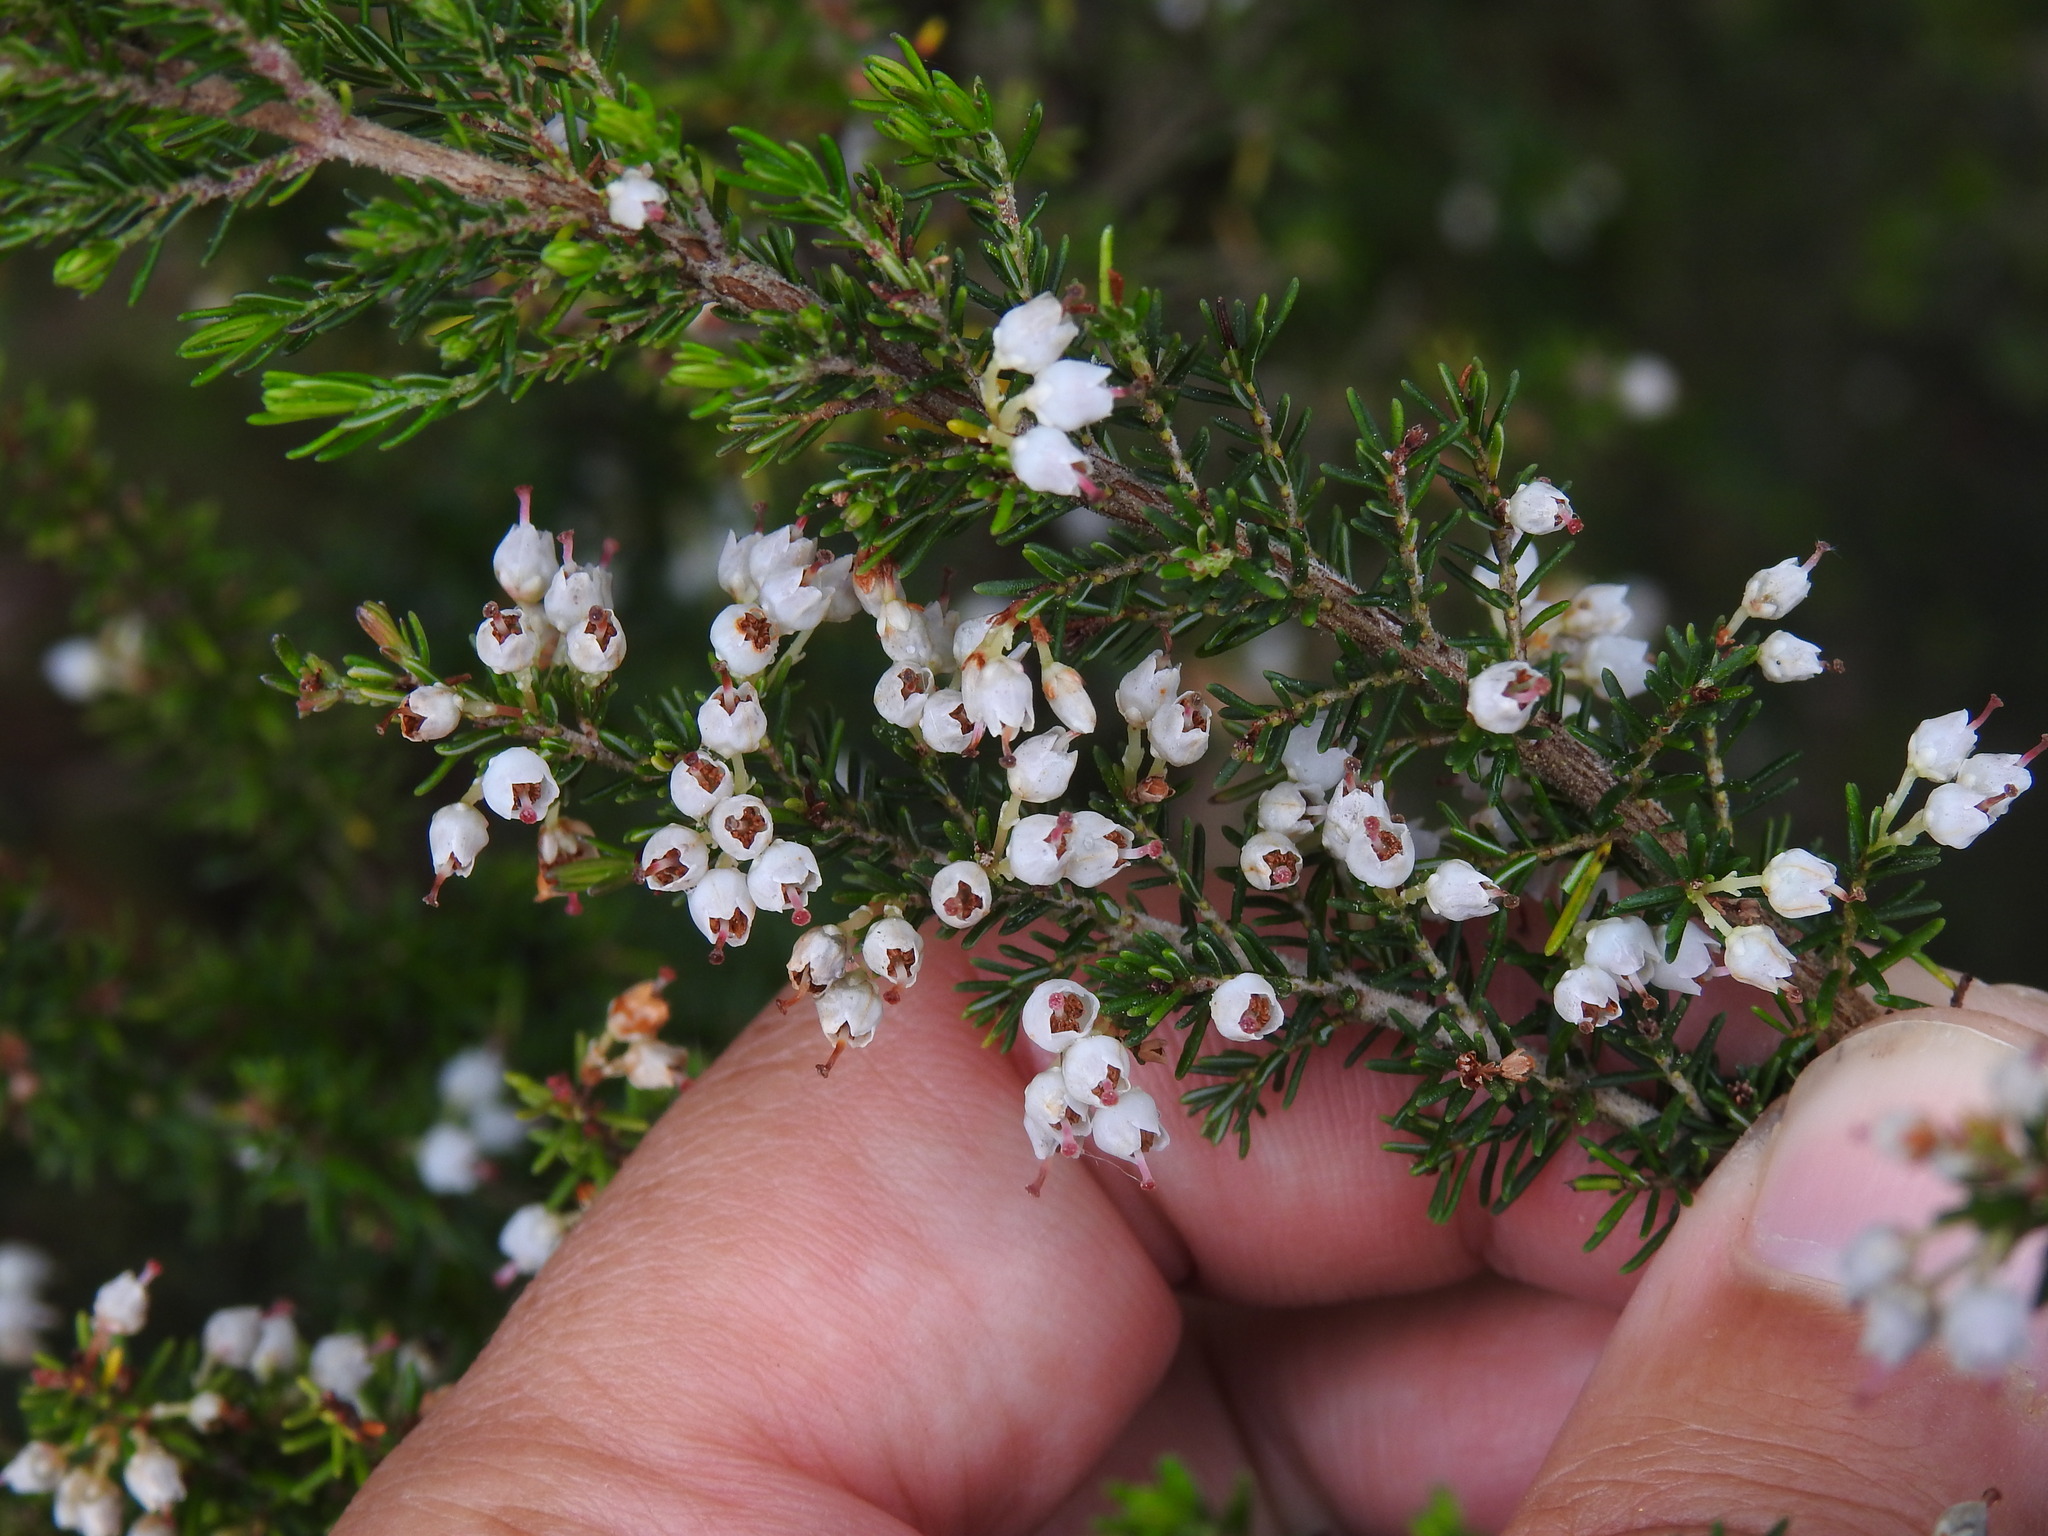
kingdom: Plantae
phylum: Tracheophyta
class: Magnoliopsida
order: Ericales
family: Ericaceae
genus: Erica
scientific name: Erica arborea
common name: Tree heath
